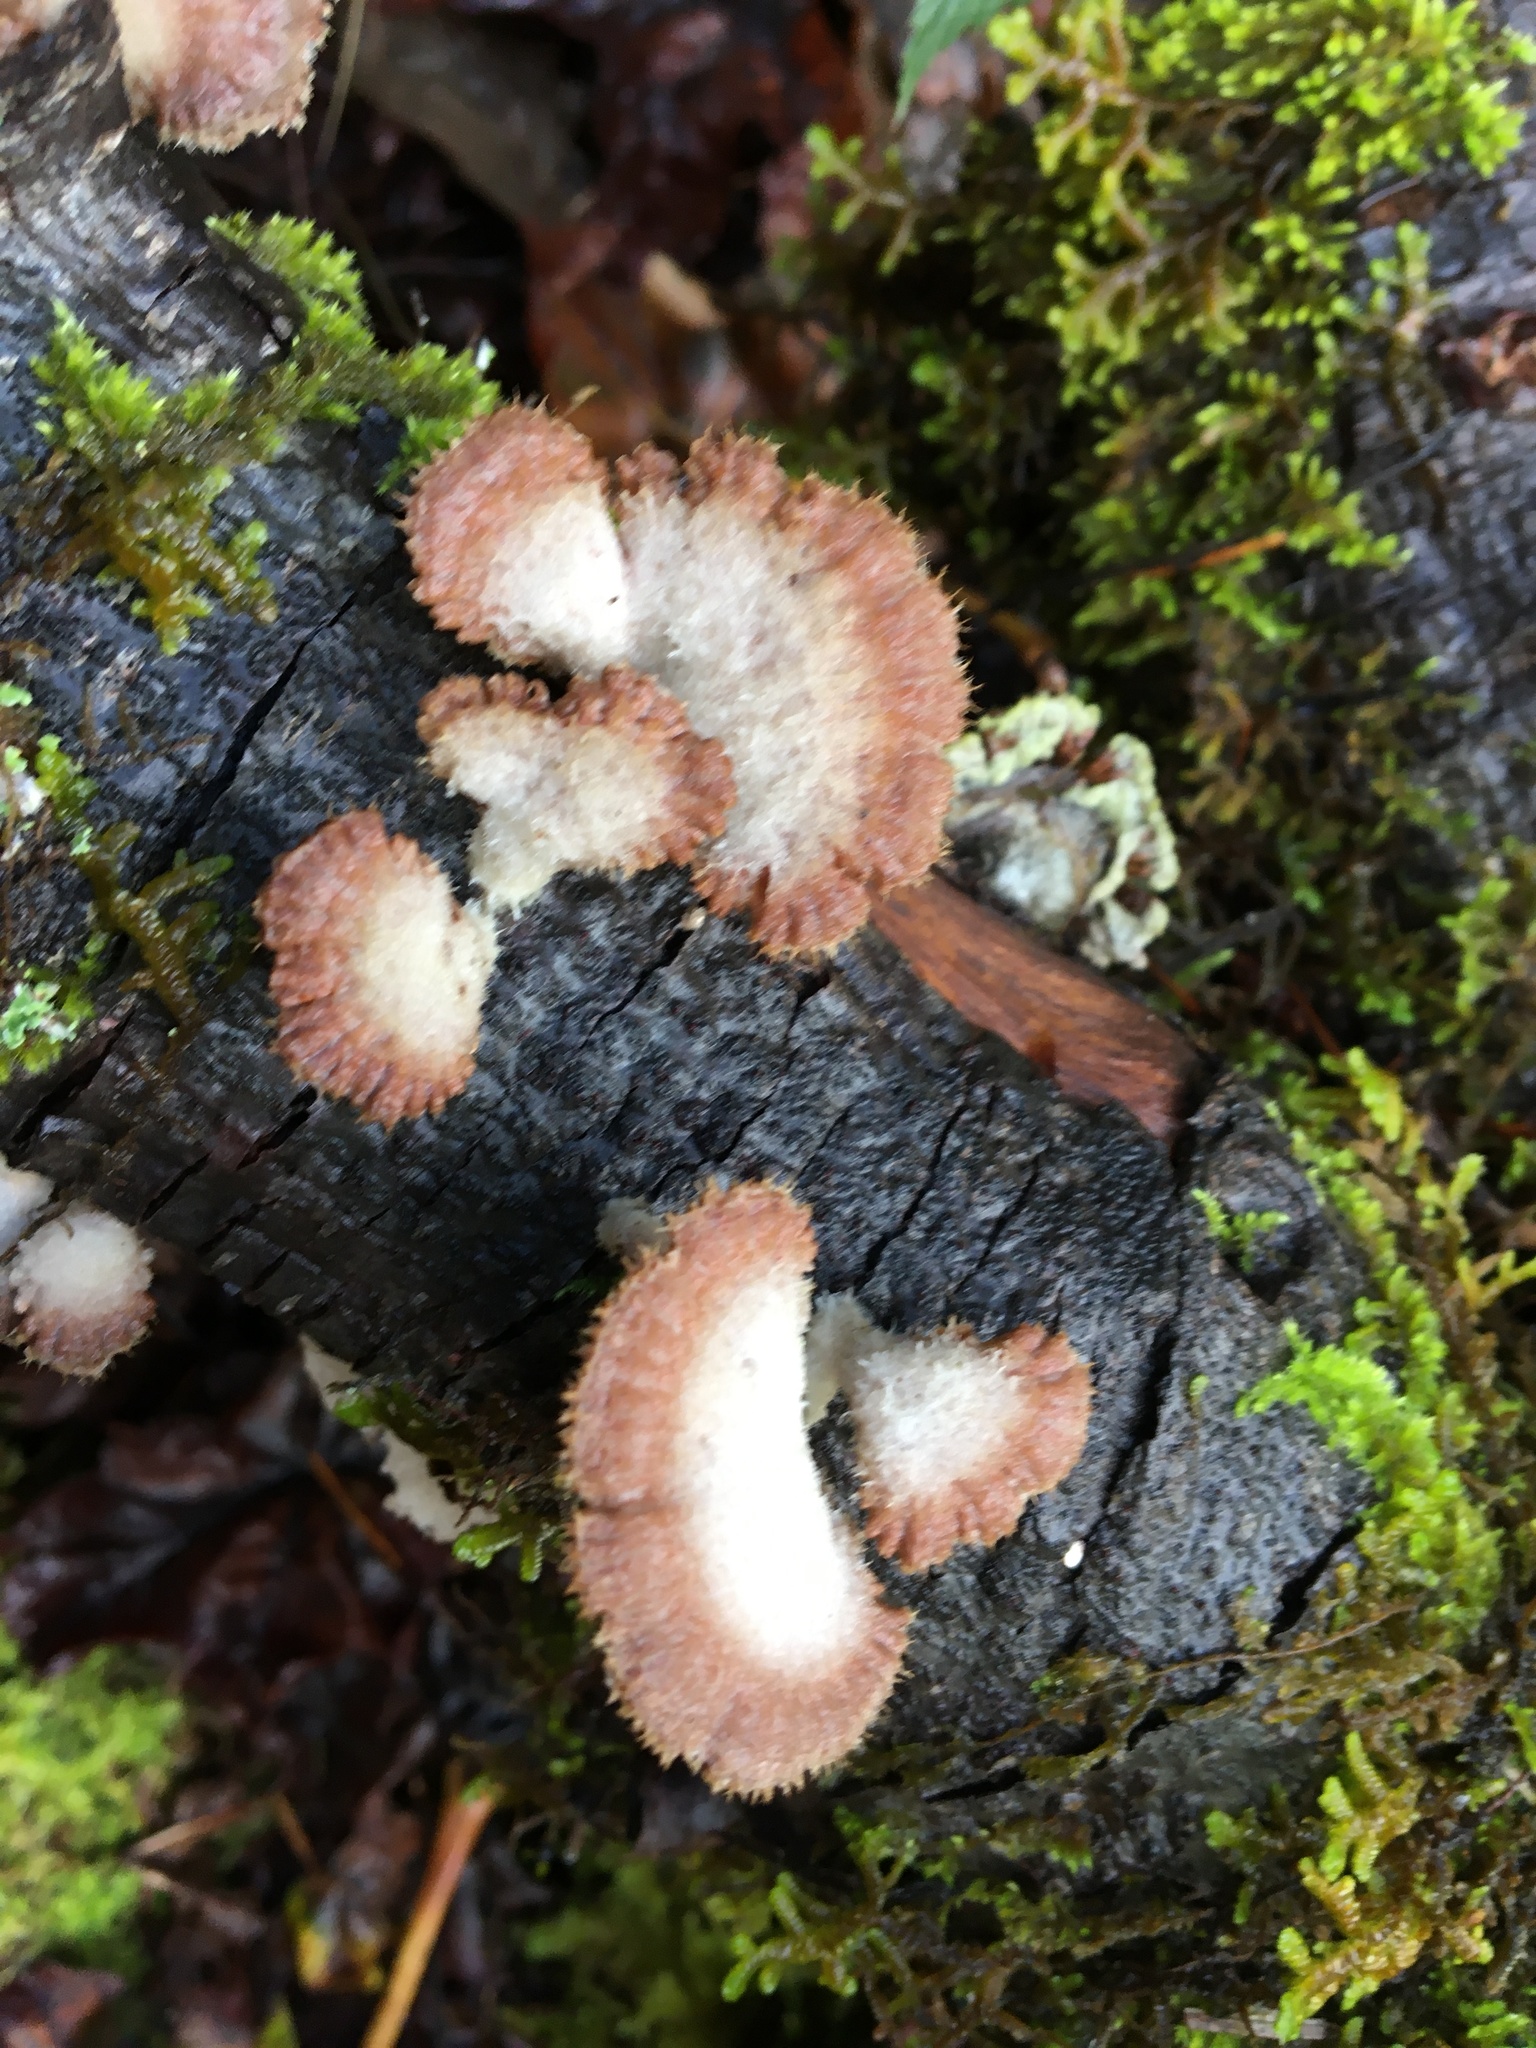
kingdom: Fungi
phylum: Basidiomycota
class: Agaricomycetes
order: Agaricales
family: Schizophyllaceae
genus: Schizophyllum
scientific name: Schizophyllum commune
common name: Common porecrust
